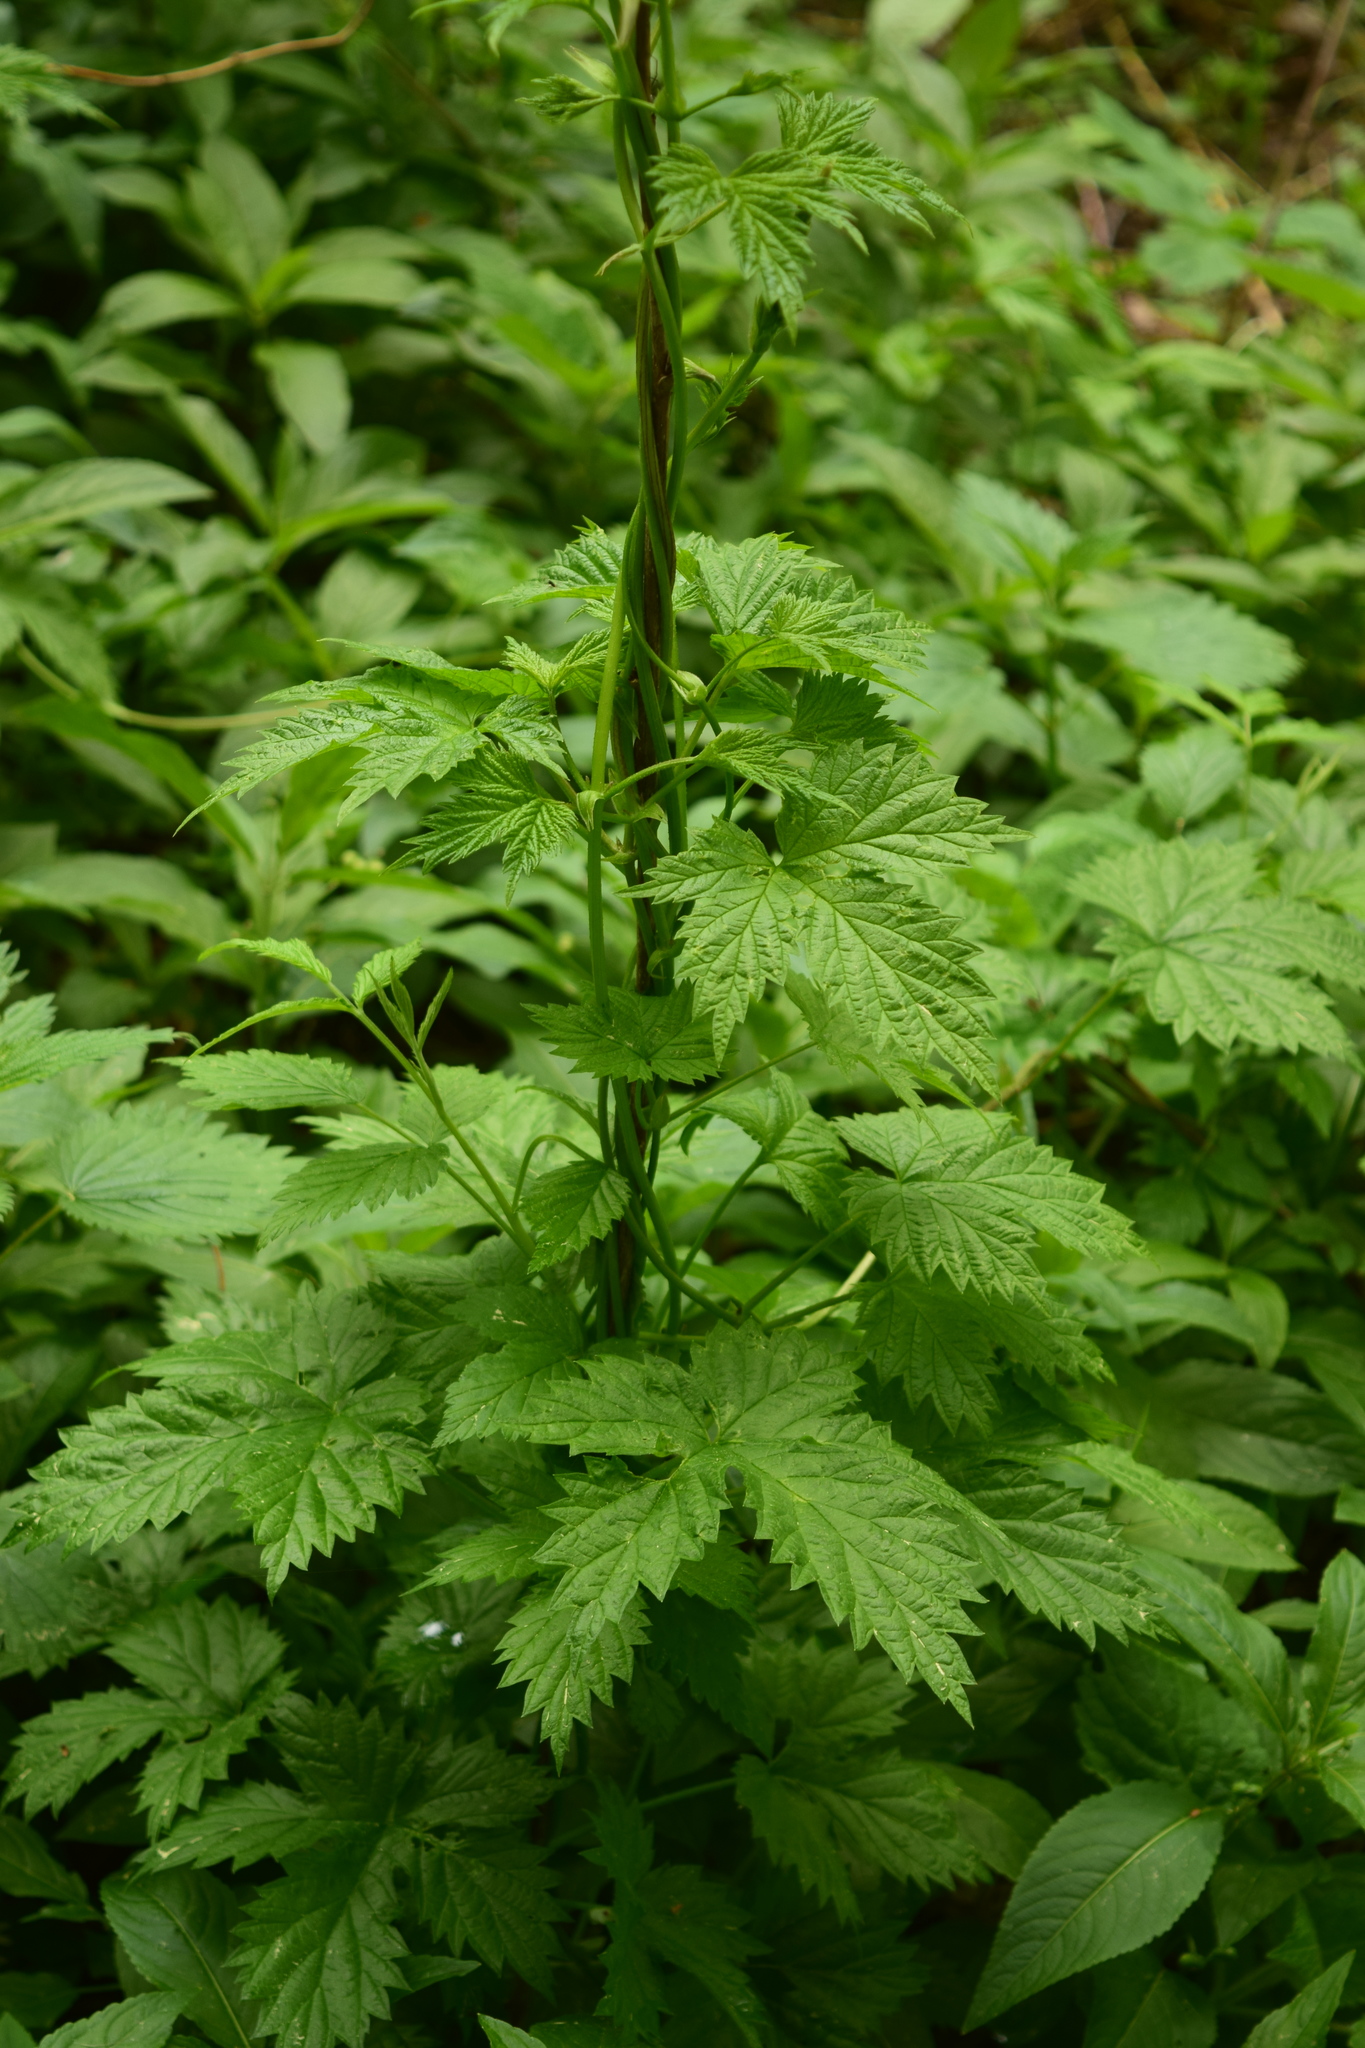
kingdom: Plantae
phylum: Tracheophyta
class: Magnoliopsida
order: Rosales
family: Cannabaceae
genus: Humulus
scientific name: Humulus lupulus
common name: Hop
